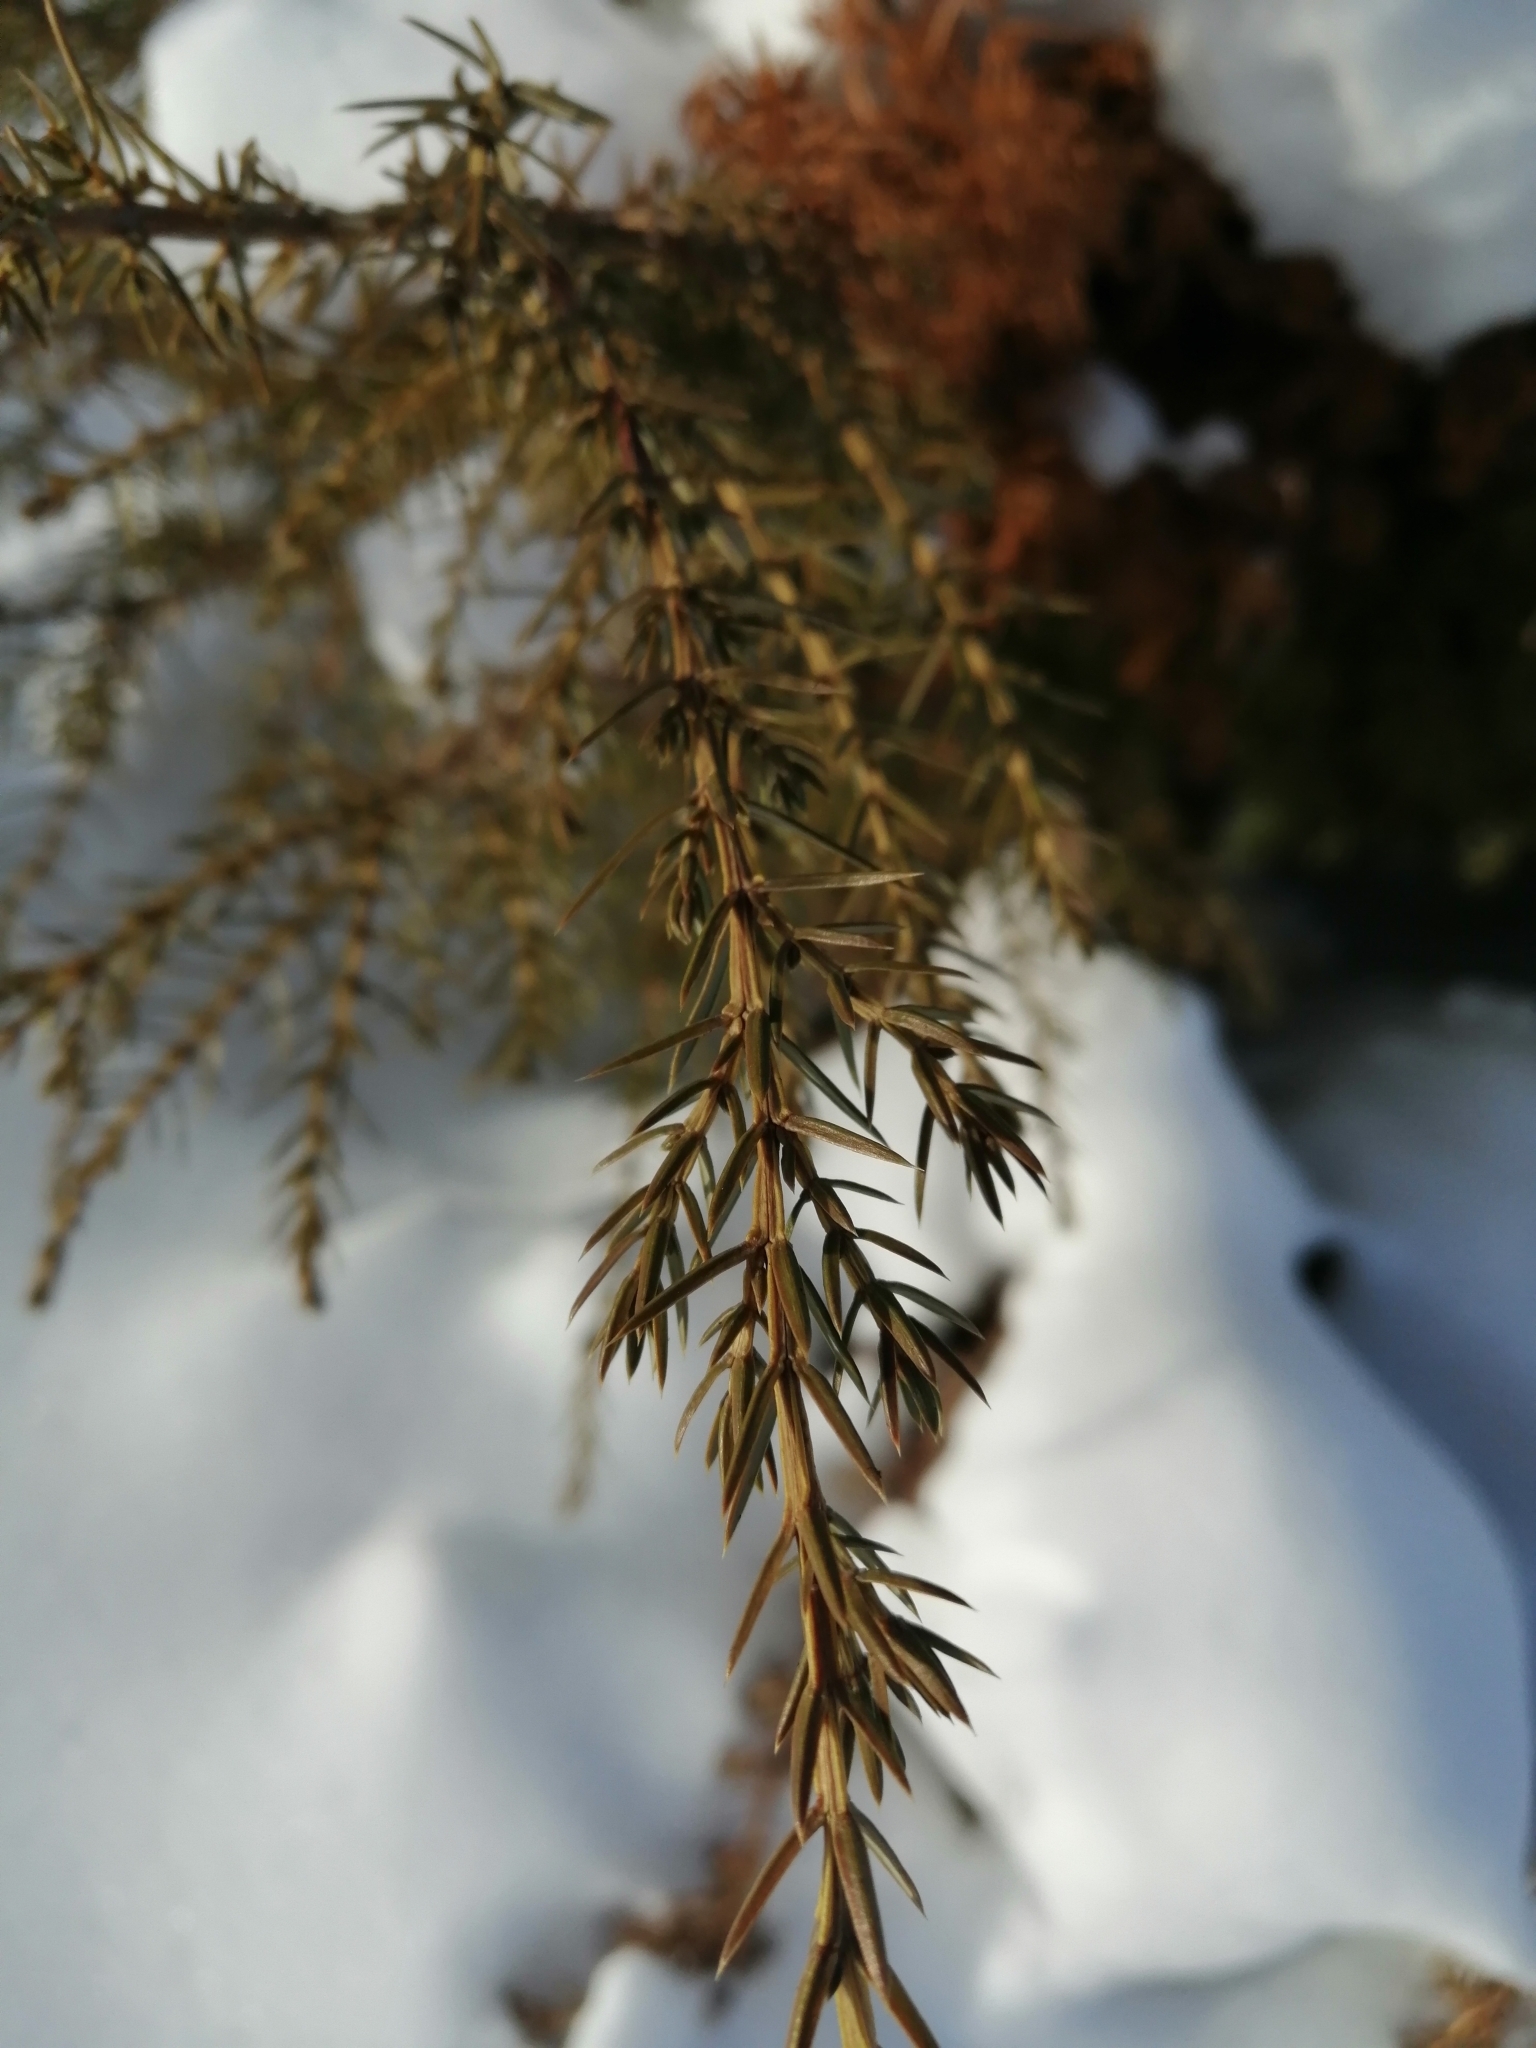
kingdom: Plantae
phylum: Tracheophyta
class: Pinopsida
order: Pinales
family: Cupressaceae
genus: Juniperus
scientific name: Juniperus communis
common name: Common juniper
